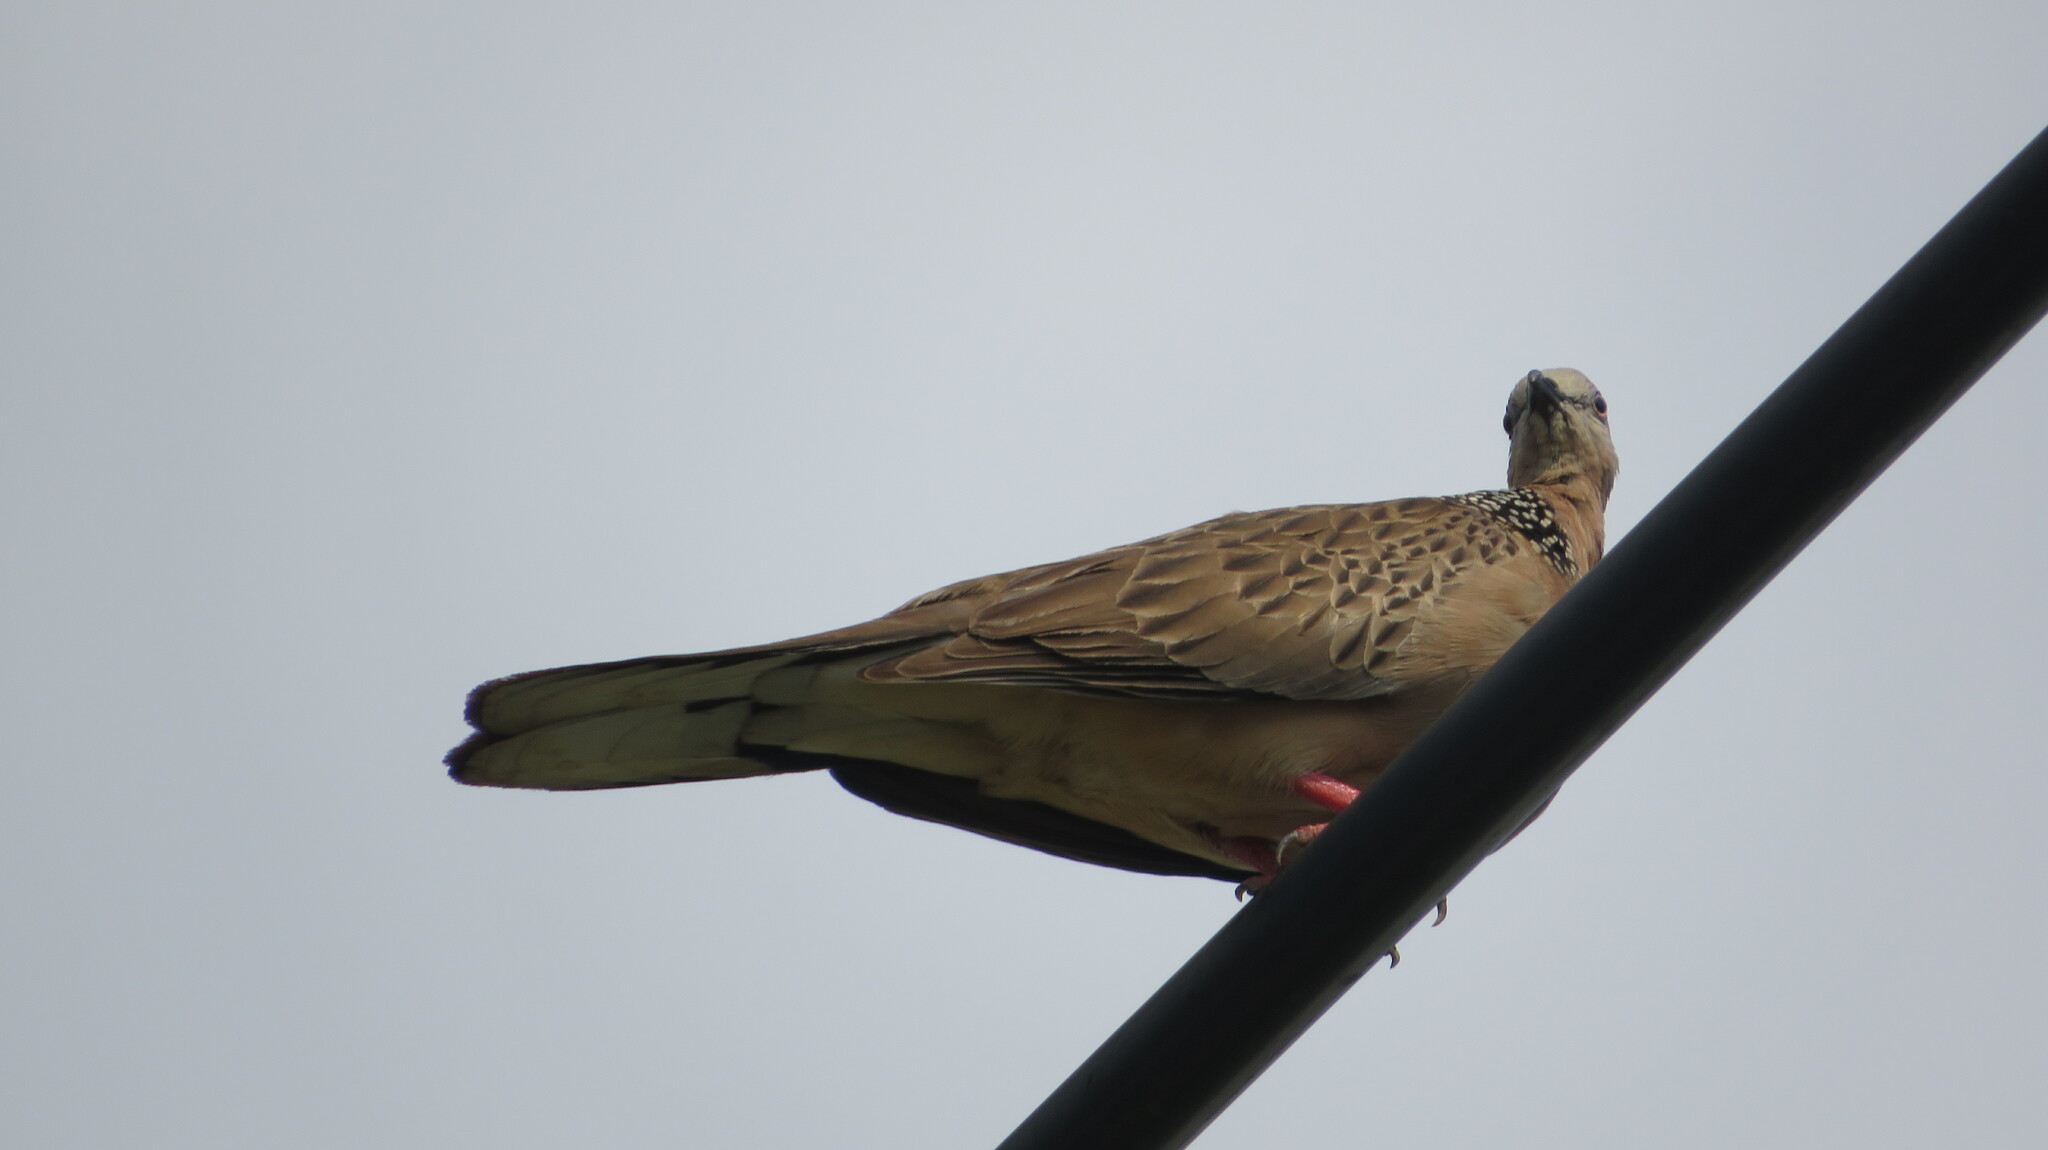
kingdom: Animalia
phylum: Chordata
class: Aves
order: Columbiformes
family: Columbidae
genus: Spilopelia
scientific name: Spilopelia chinensis
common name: Spotted dove
